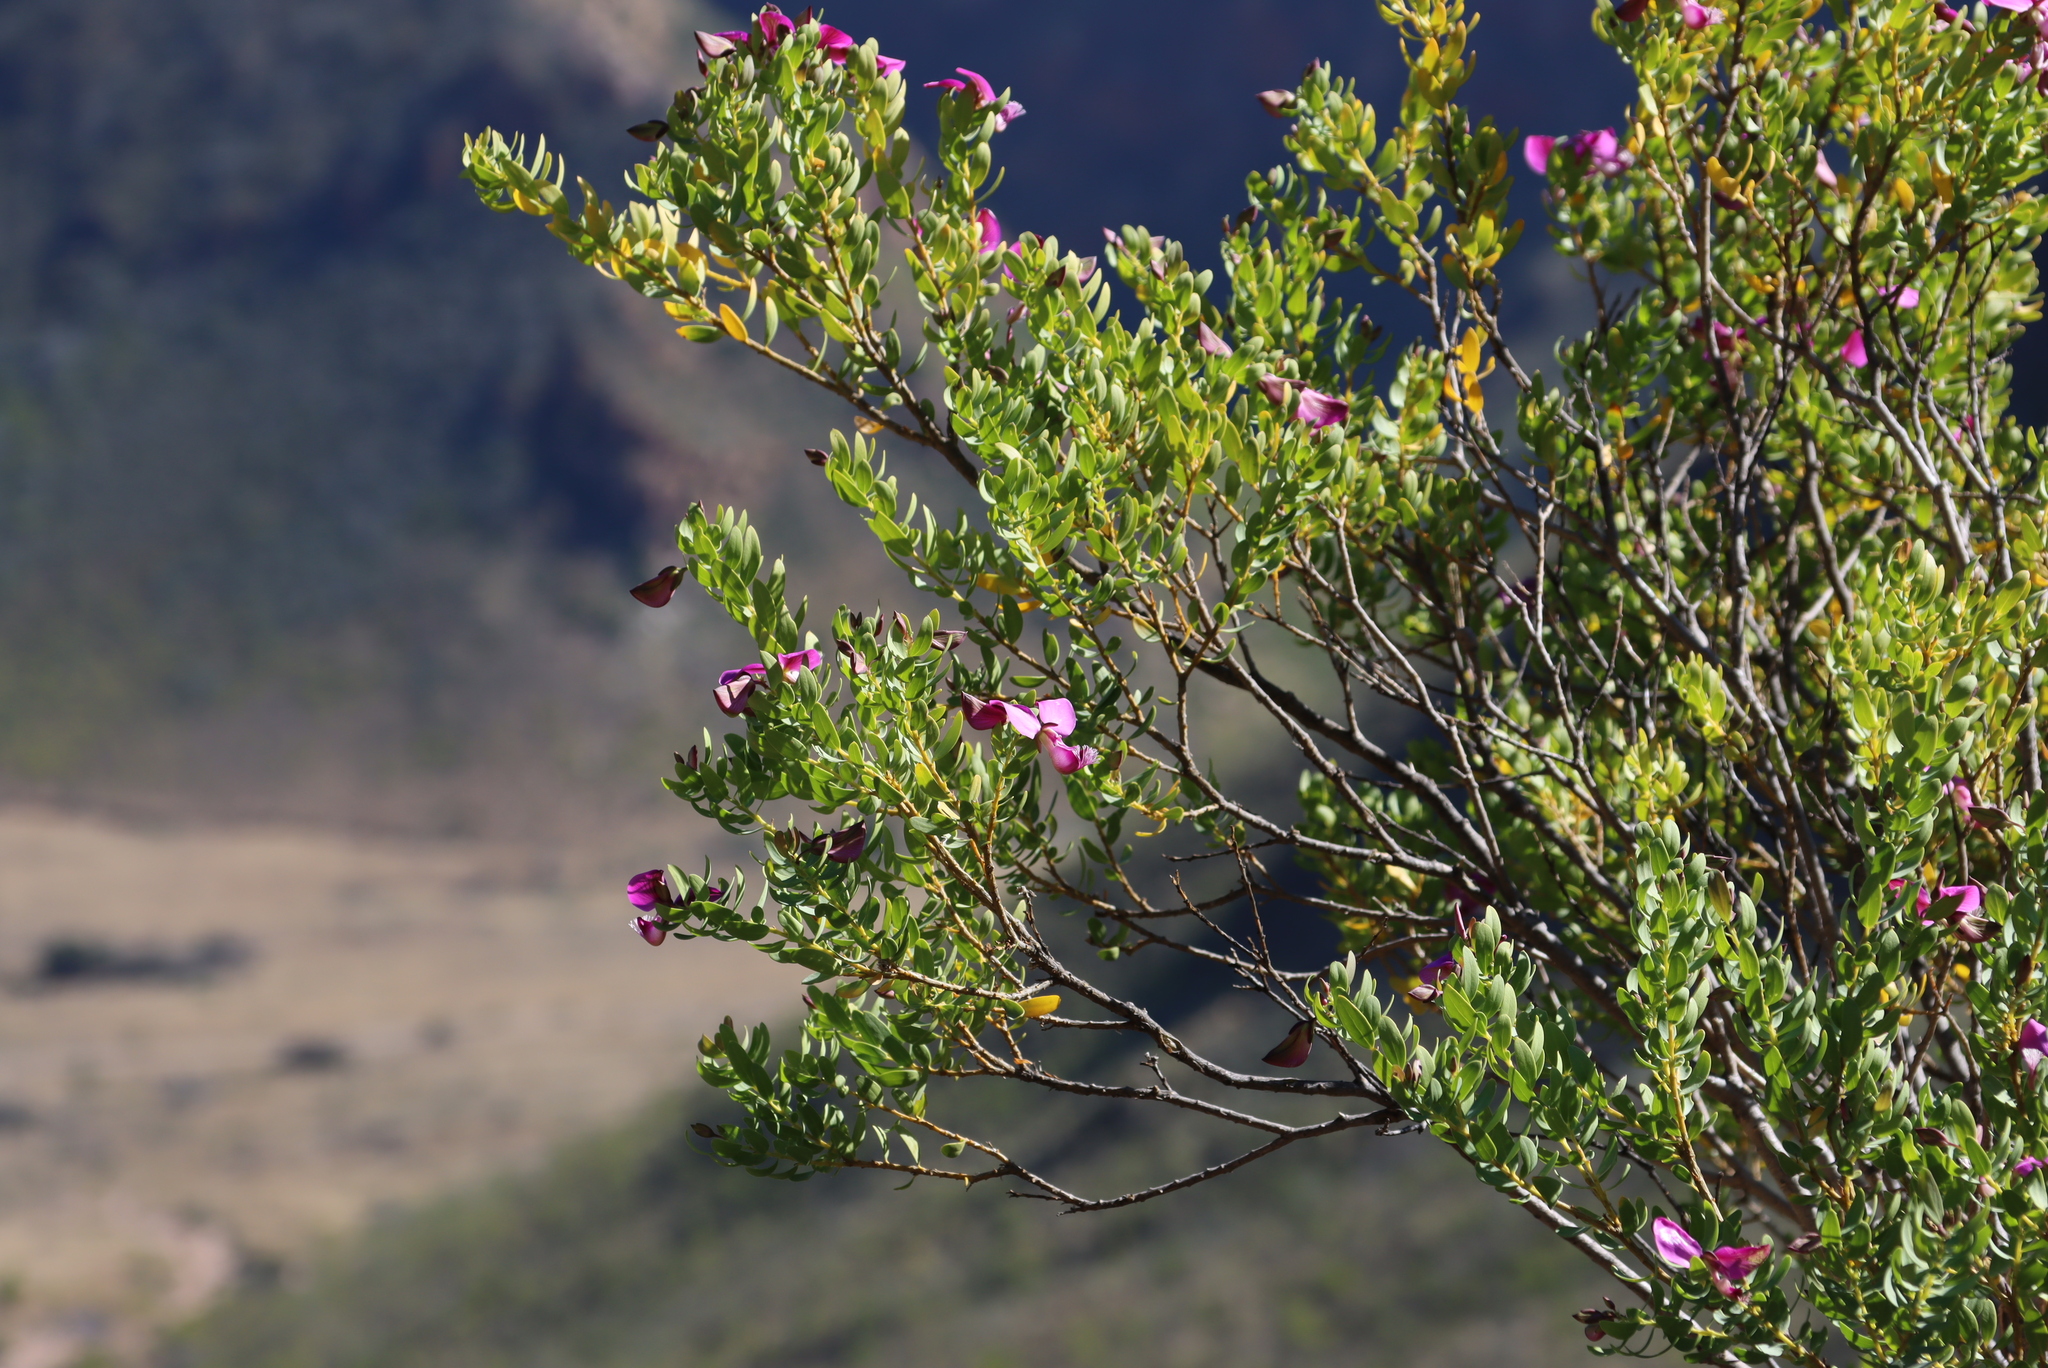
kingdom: Plantae
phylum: Tracheophyta
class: Magnoliopsida
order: Fabales
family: Polygalaceae
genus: Polygala
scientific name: Polygala myrtifolia
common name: Myrtle-leaf milkwort
